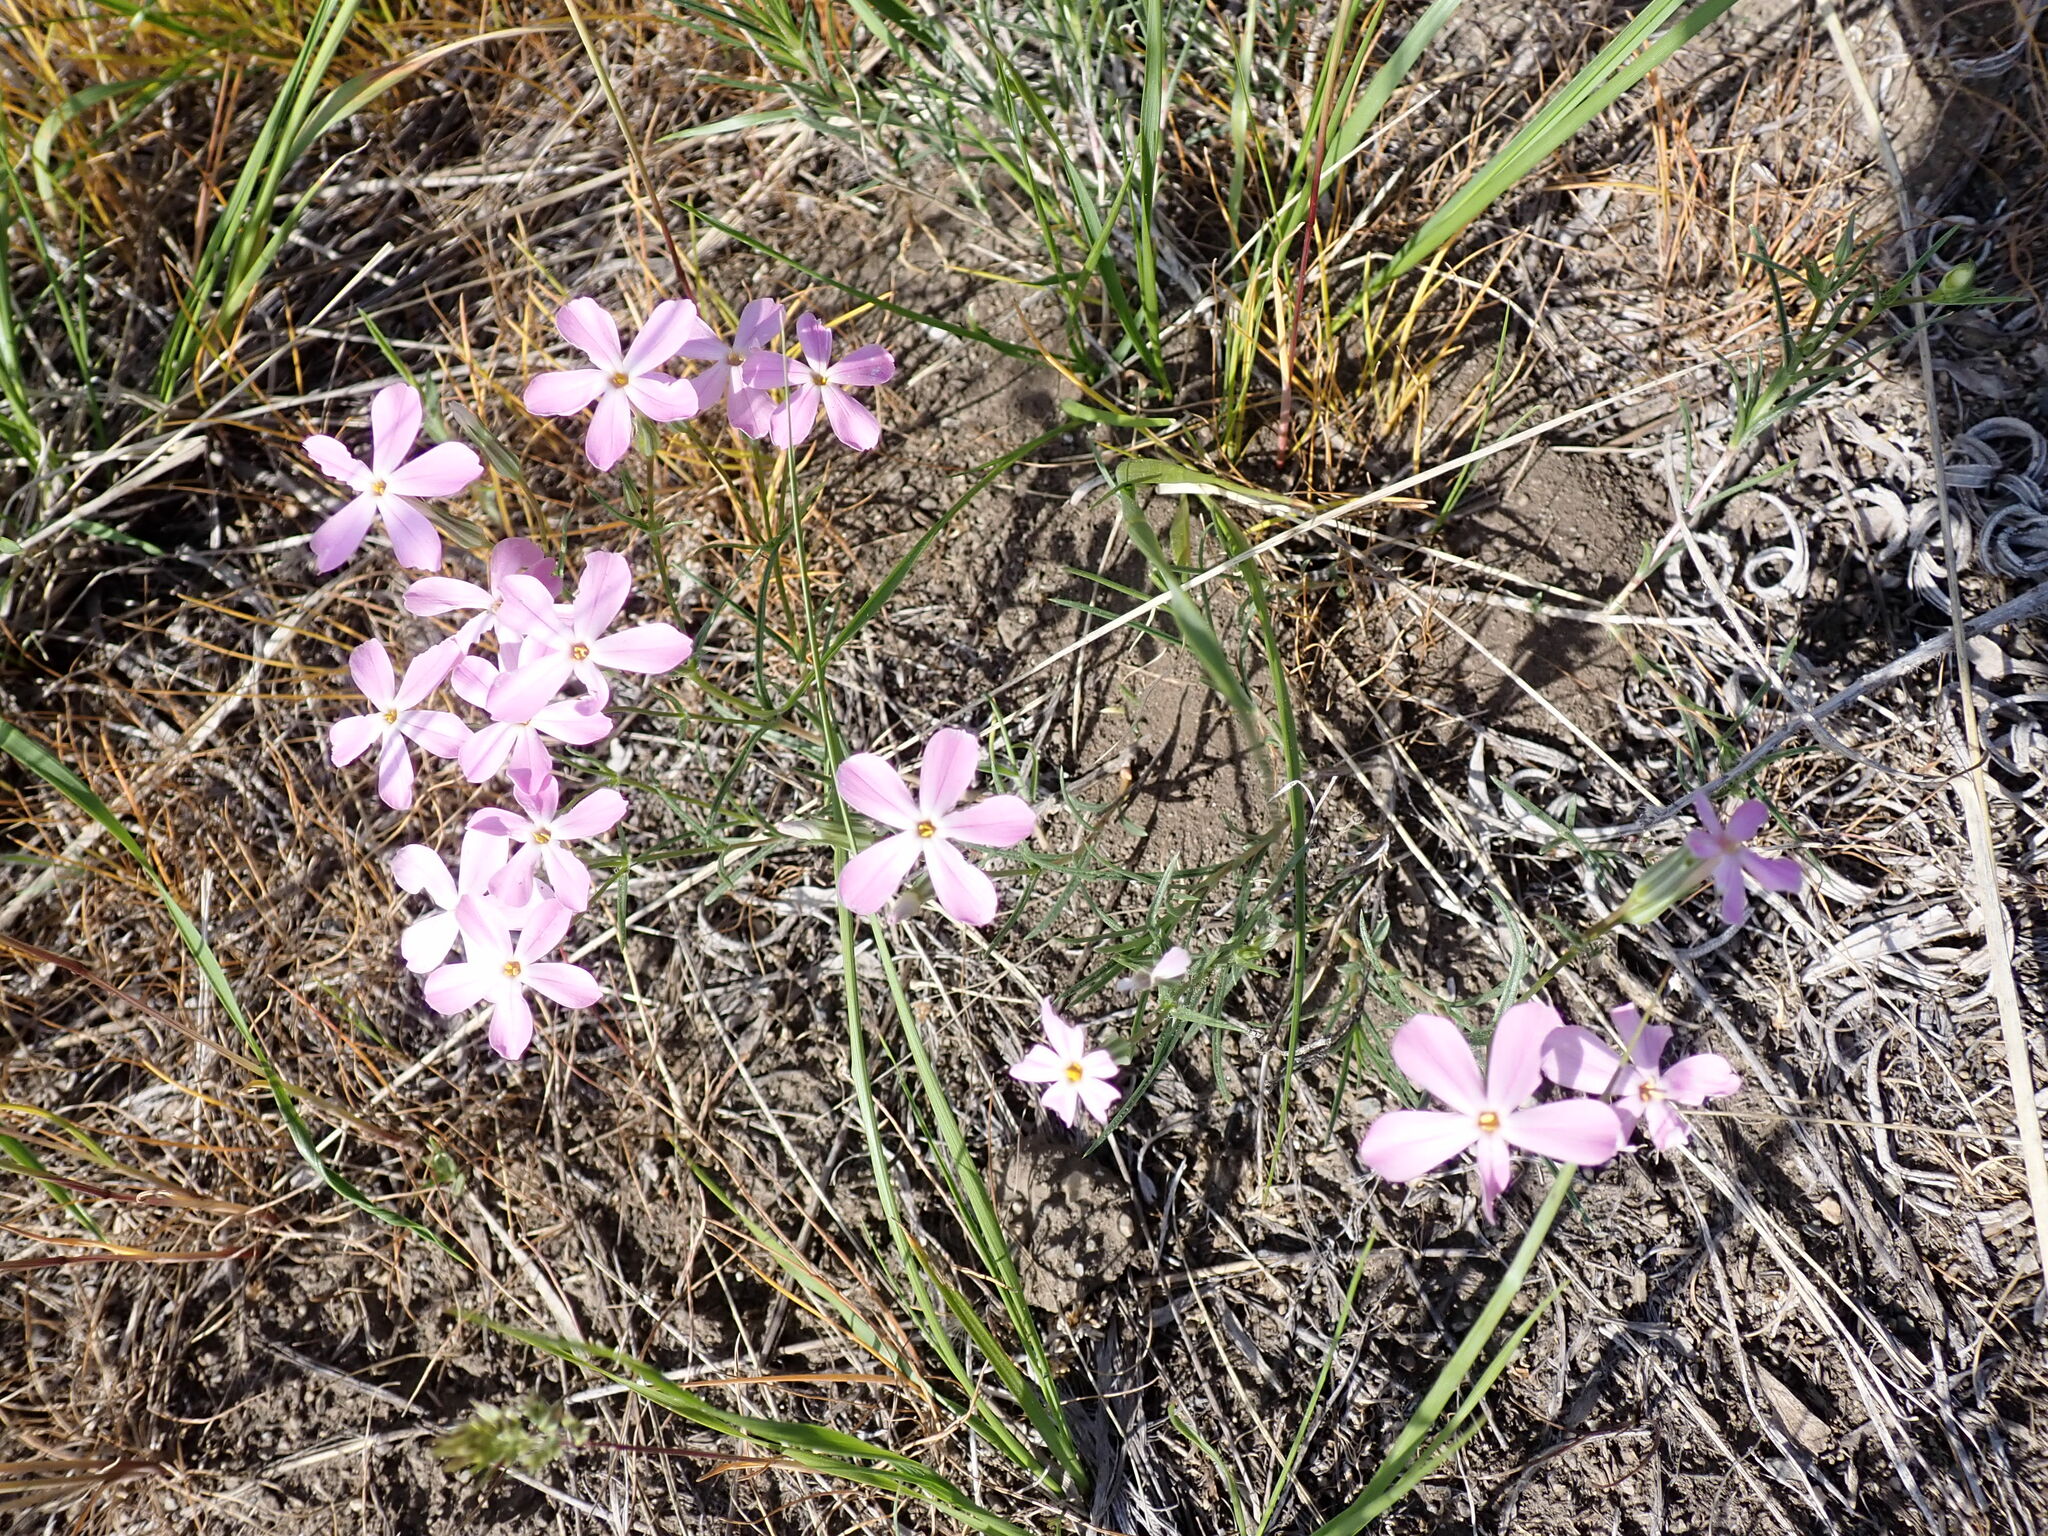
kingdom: Plantae
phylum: Tracheophyta
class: Magnoliopsida
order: Ericales
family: Polemoniaceae
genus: Phlox
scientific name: Phlox longifolia
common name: Longleaf phlox
